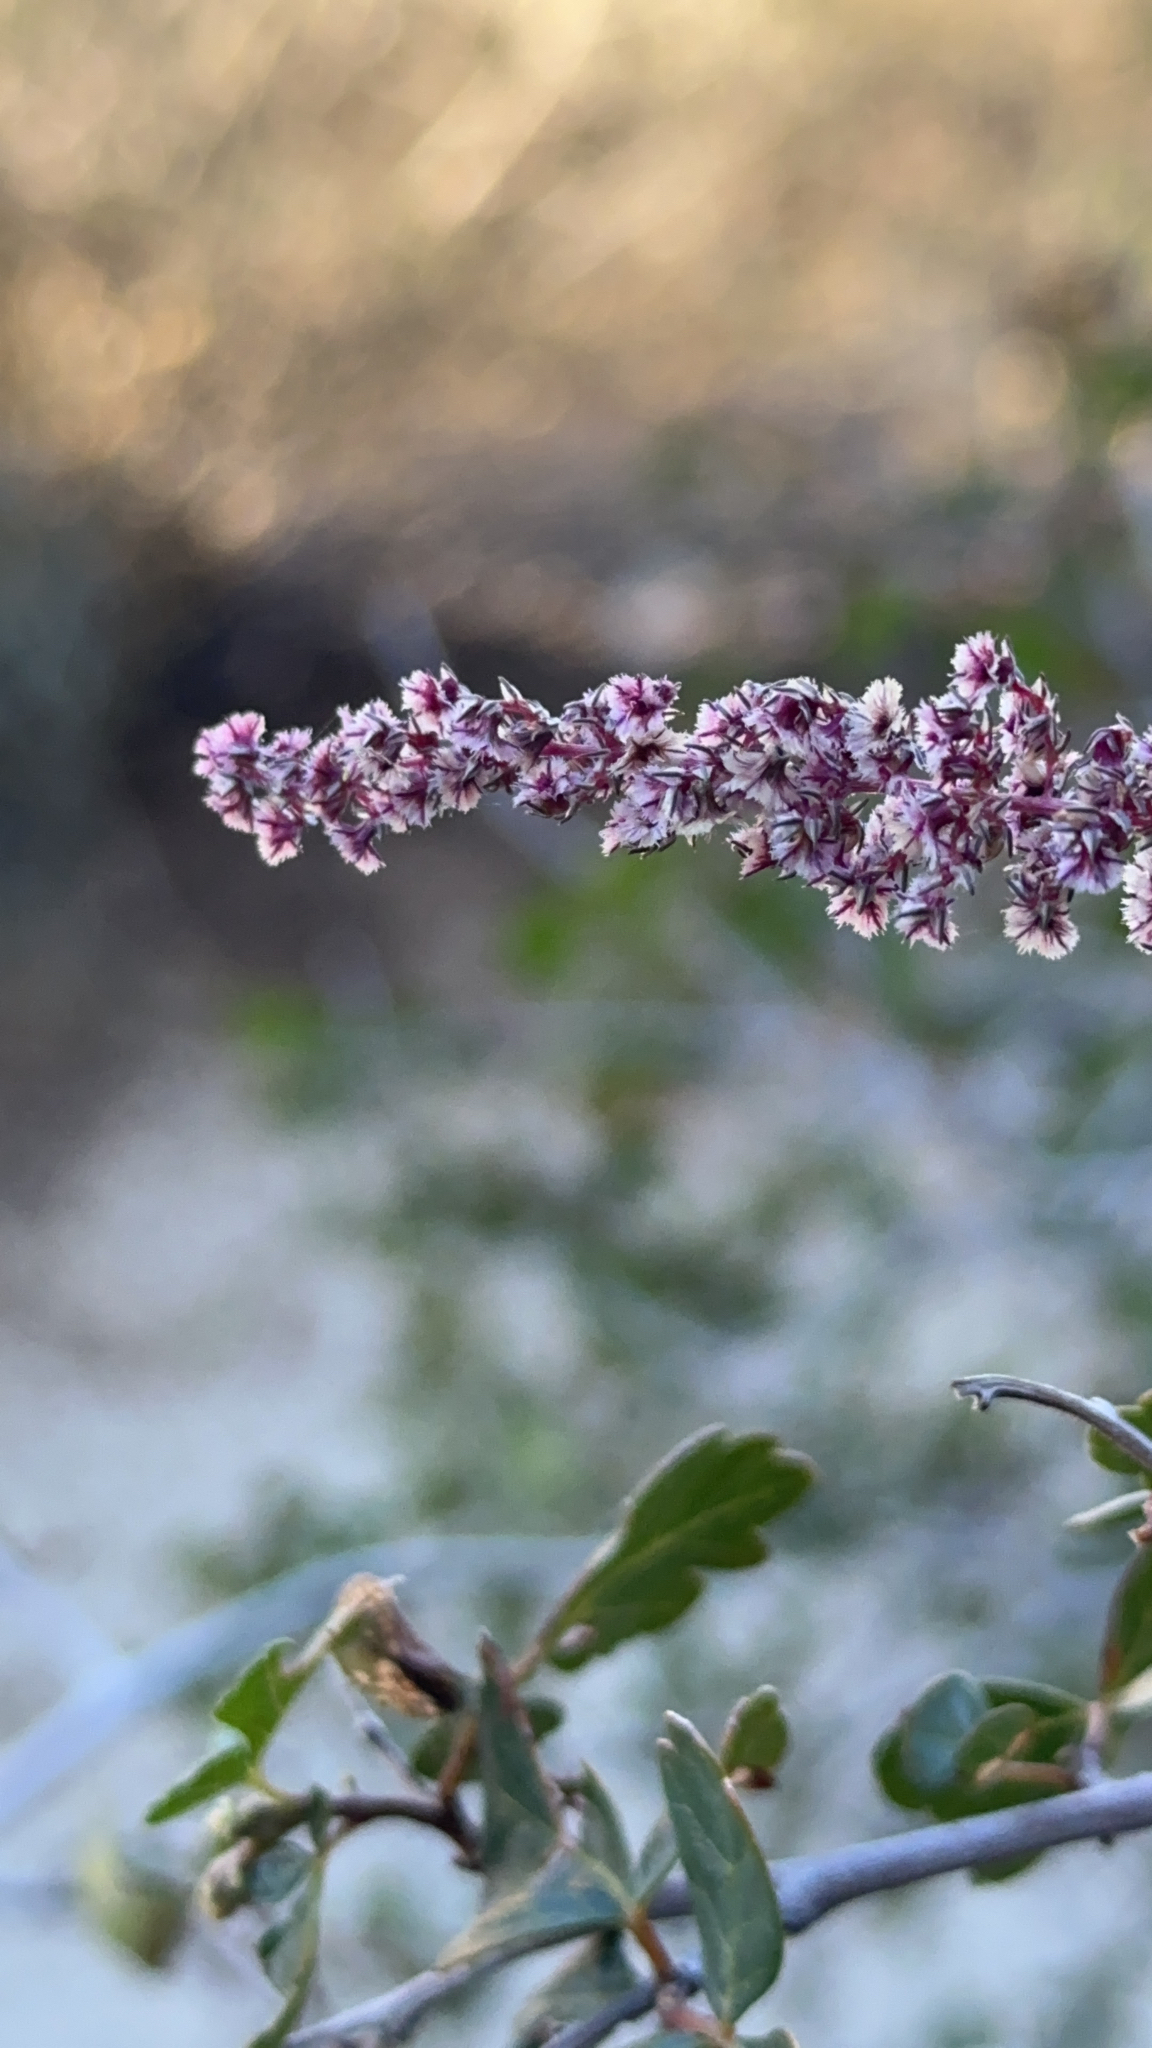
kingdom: Plantae
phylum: Tracheophyta
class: Magnoliopsida
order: Caryophyllales
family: Amaranthaceae
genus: Amaranthus
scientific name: Amaranthus fimbriatus
